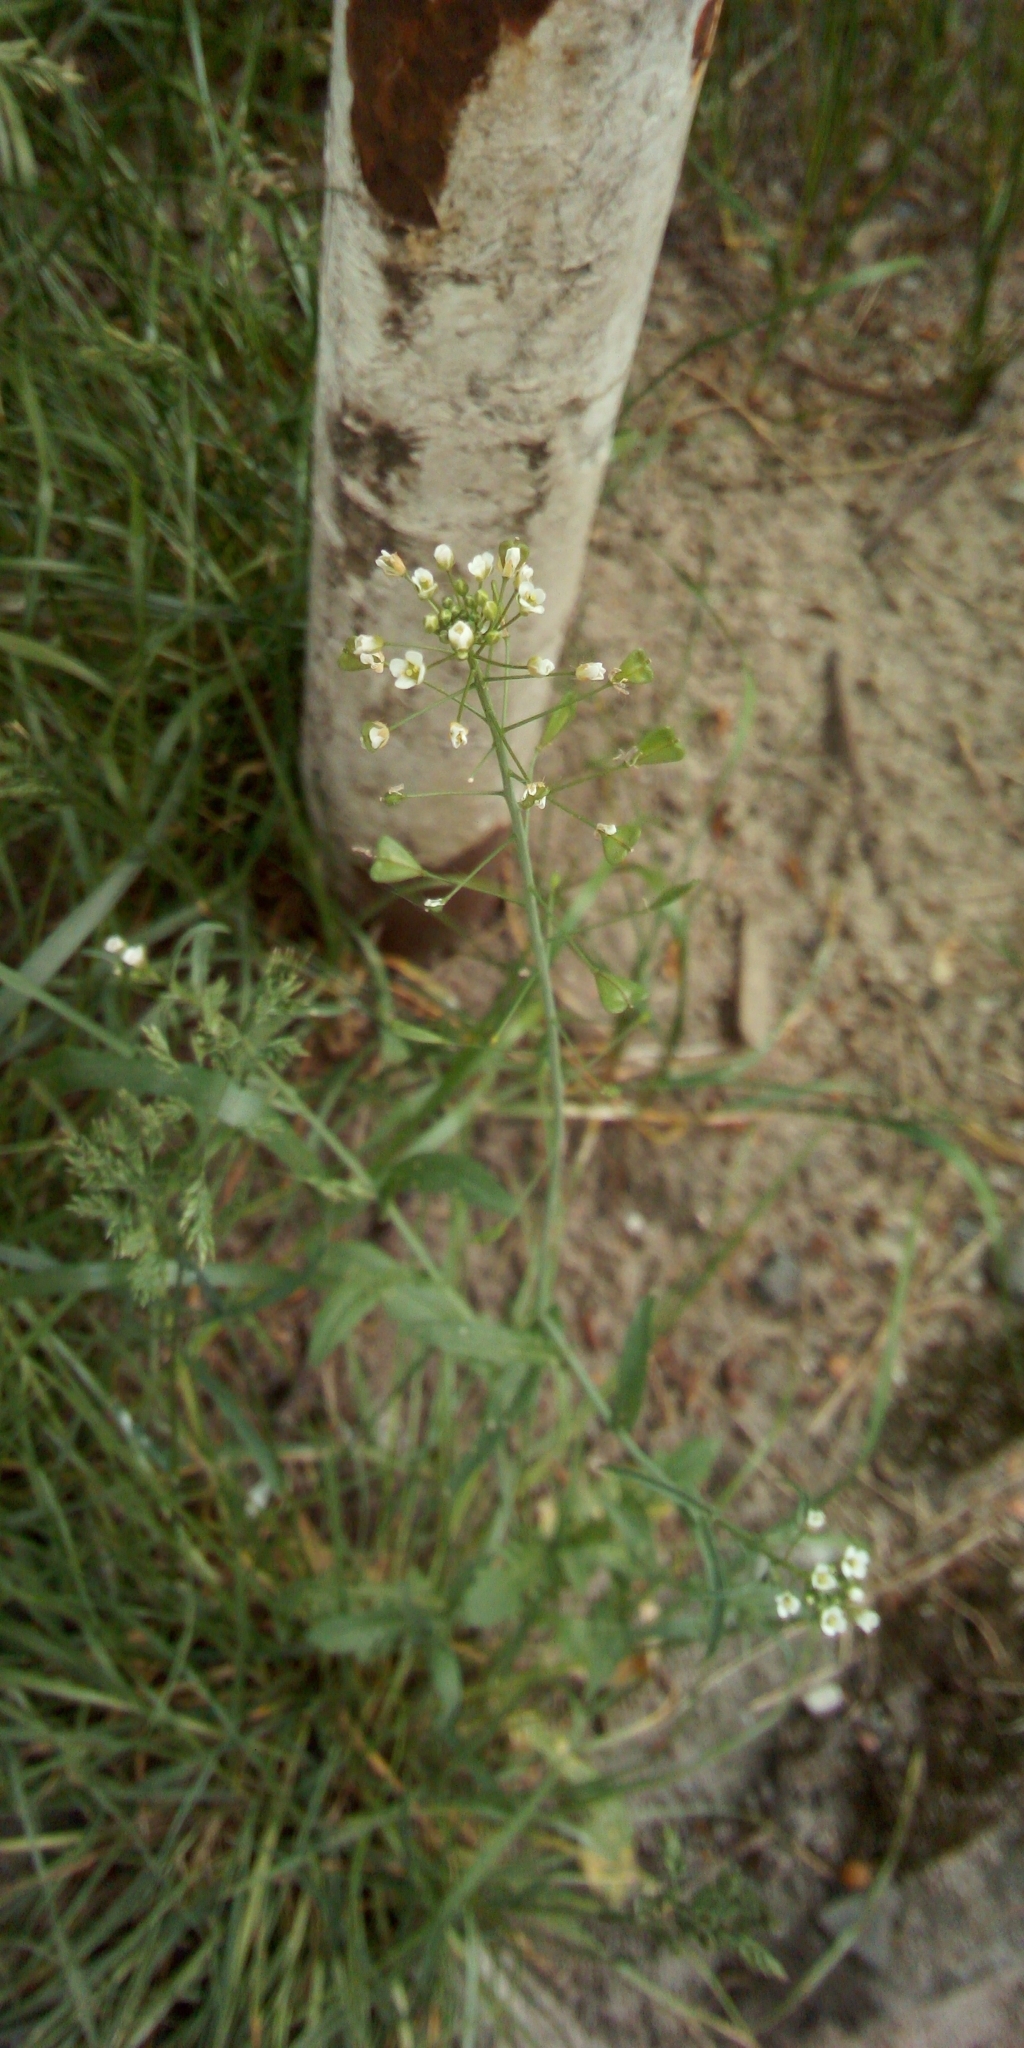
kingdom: Plantae
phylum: Tracheophyta
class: Magnoliopsida
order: Brassicales
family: Brassicaceae
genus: Capsella
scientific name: Capsella bursa-pastoris
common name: Shepherd's purse
